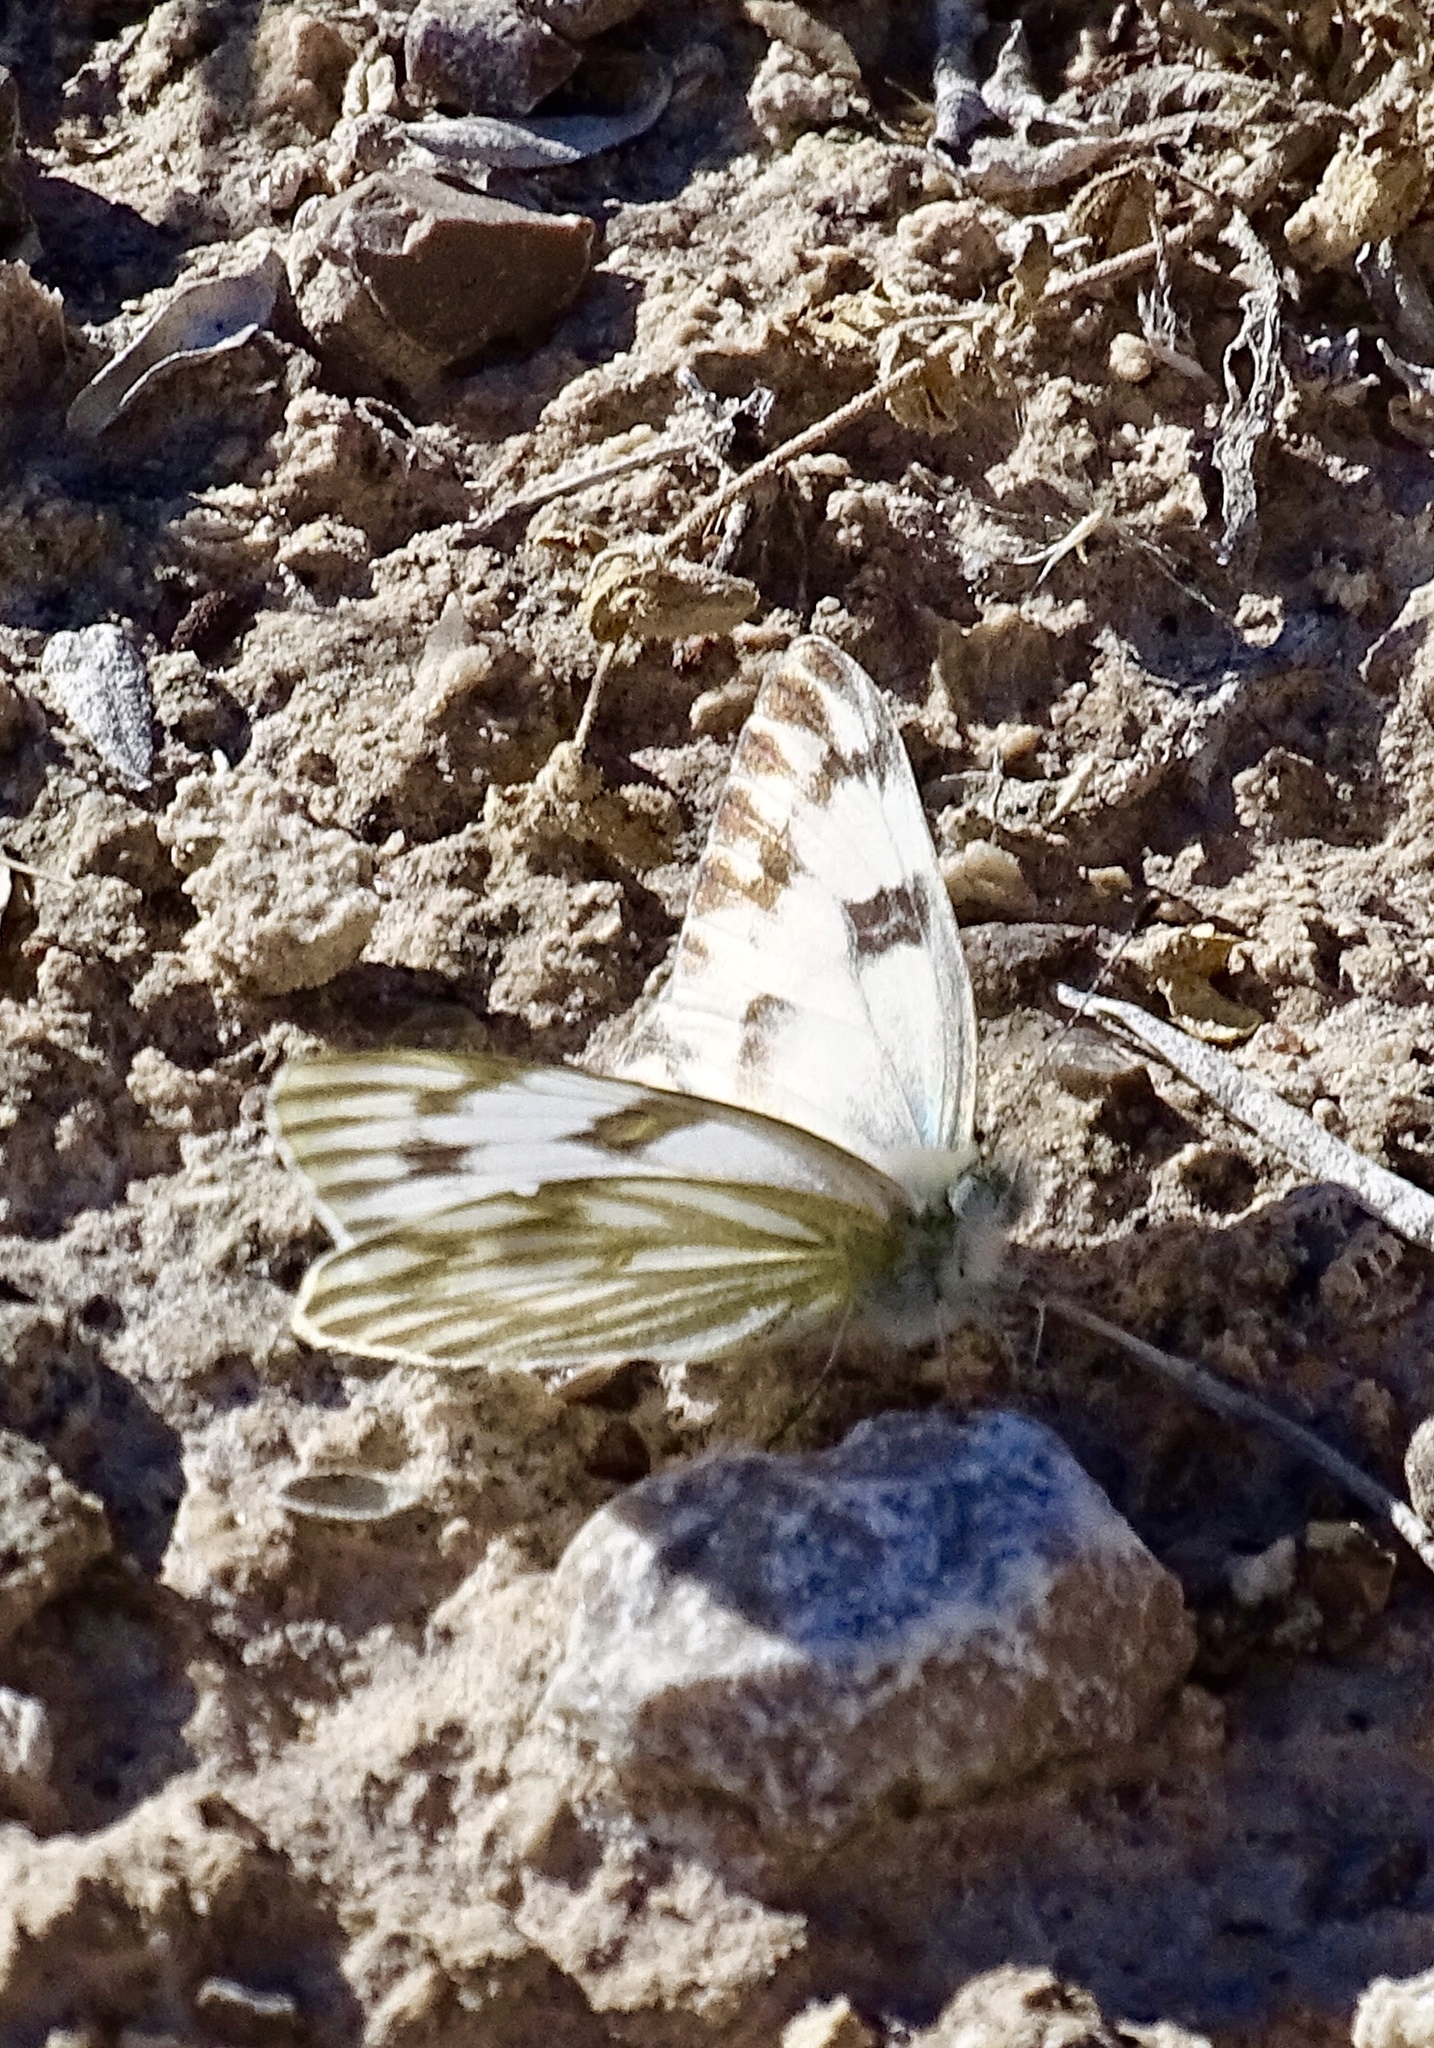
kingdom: Animalia
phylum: Arthropoda
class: Insecta
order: Lepidoptera
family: Pieridae
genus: Pontia
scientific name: Pontia protodice
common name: Checkered white
